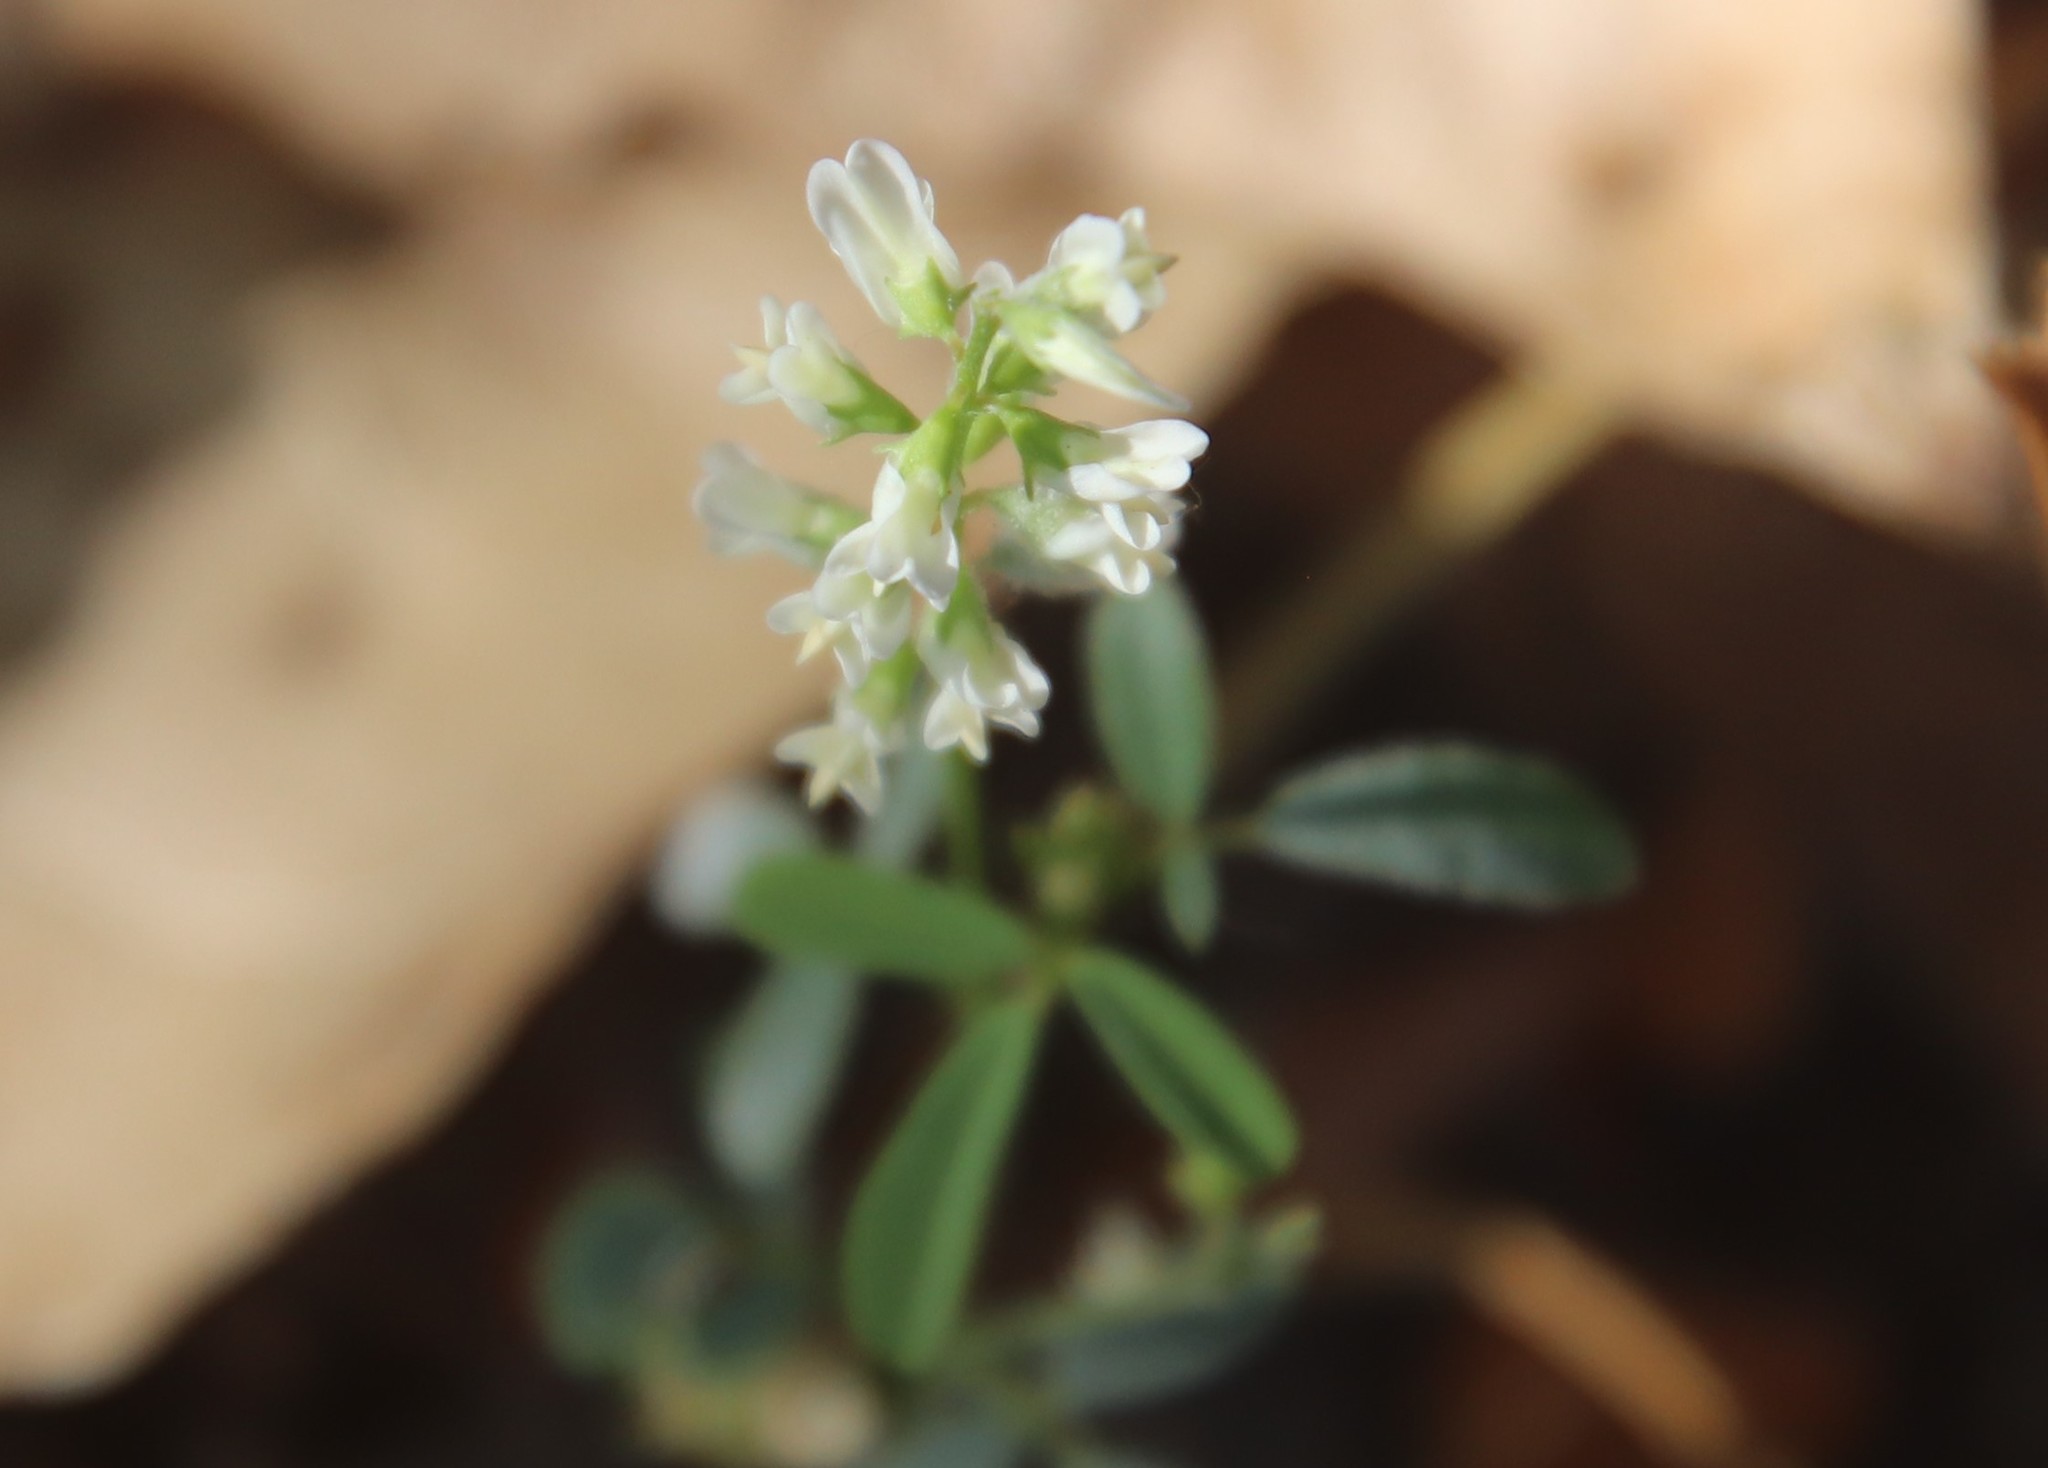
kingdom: Plantae
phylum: Tracheophyta
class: Magnoliopsida
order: Fabales
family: Fabaceae
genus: Melilotus
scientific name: Melilotus albus
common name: White melilot
